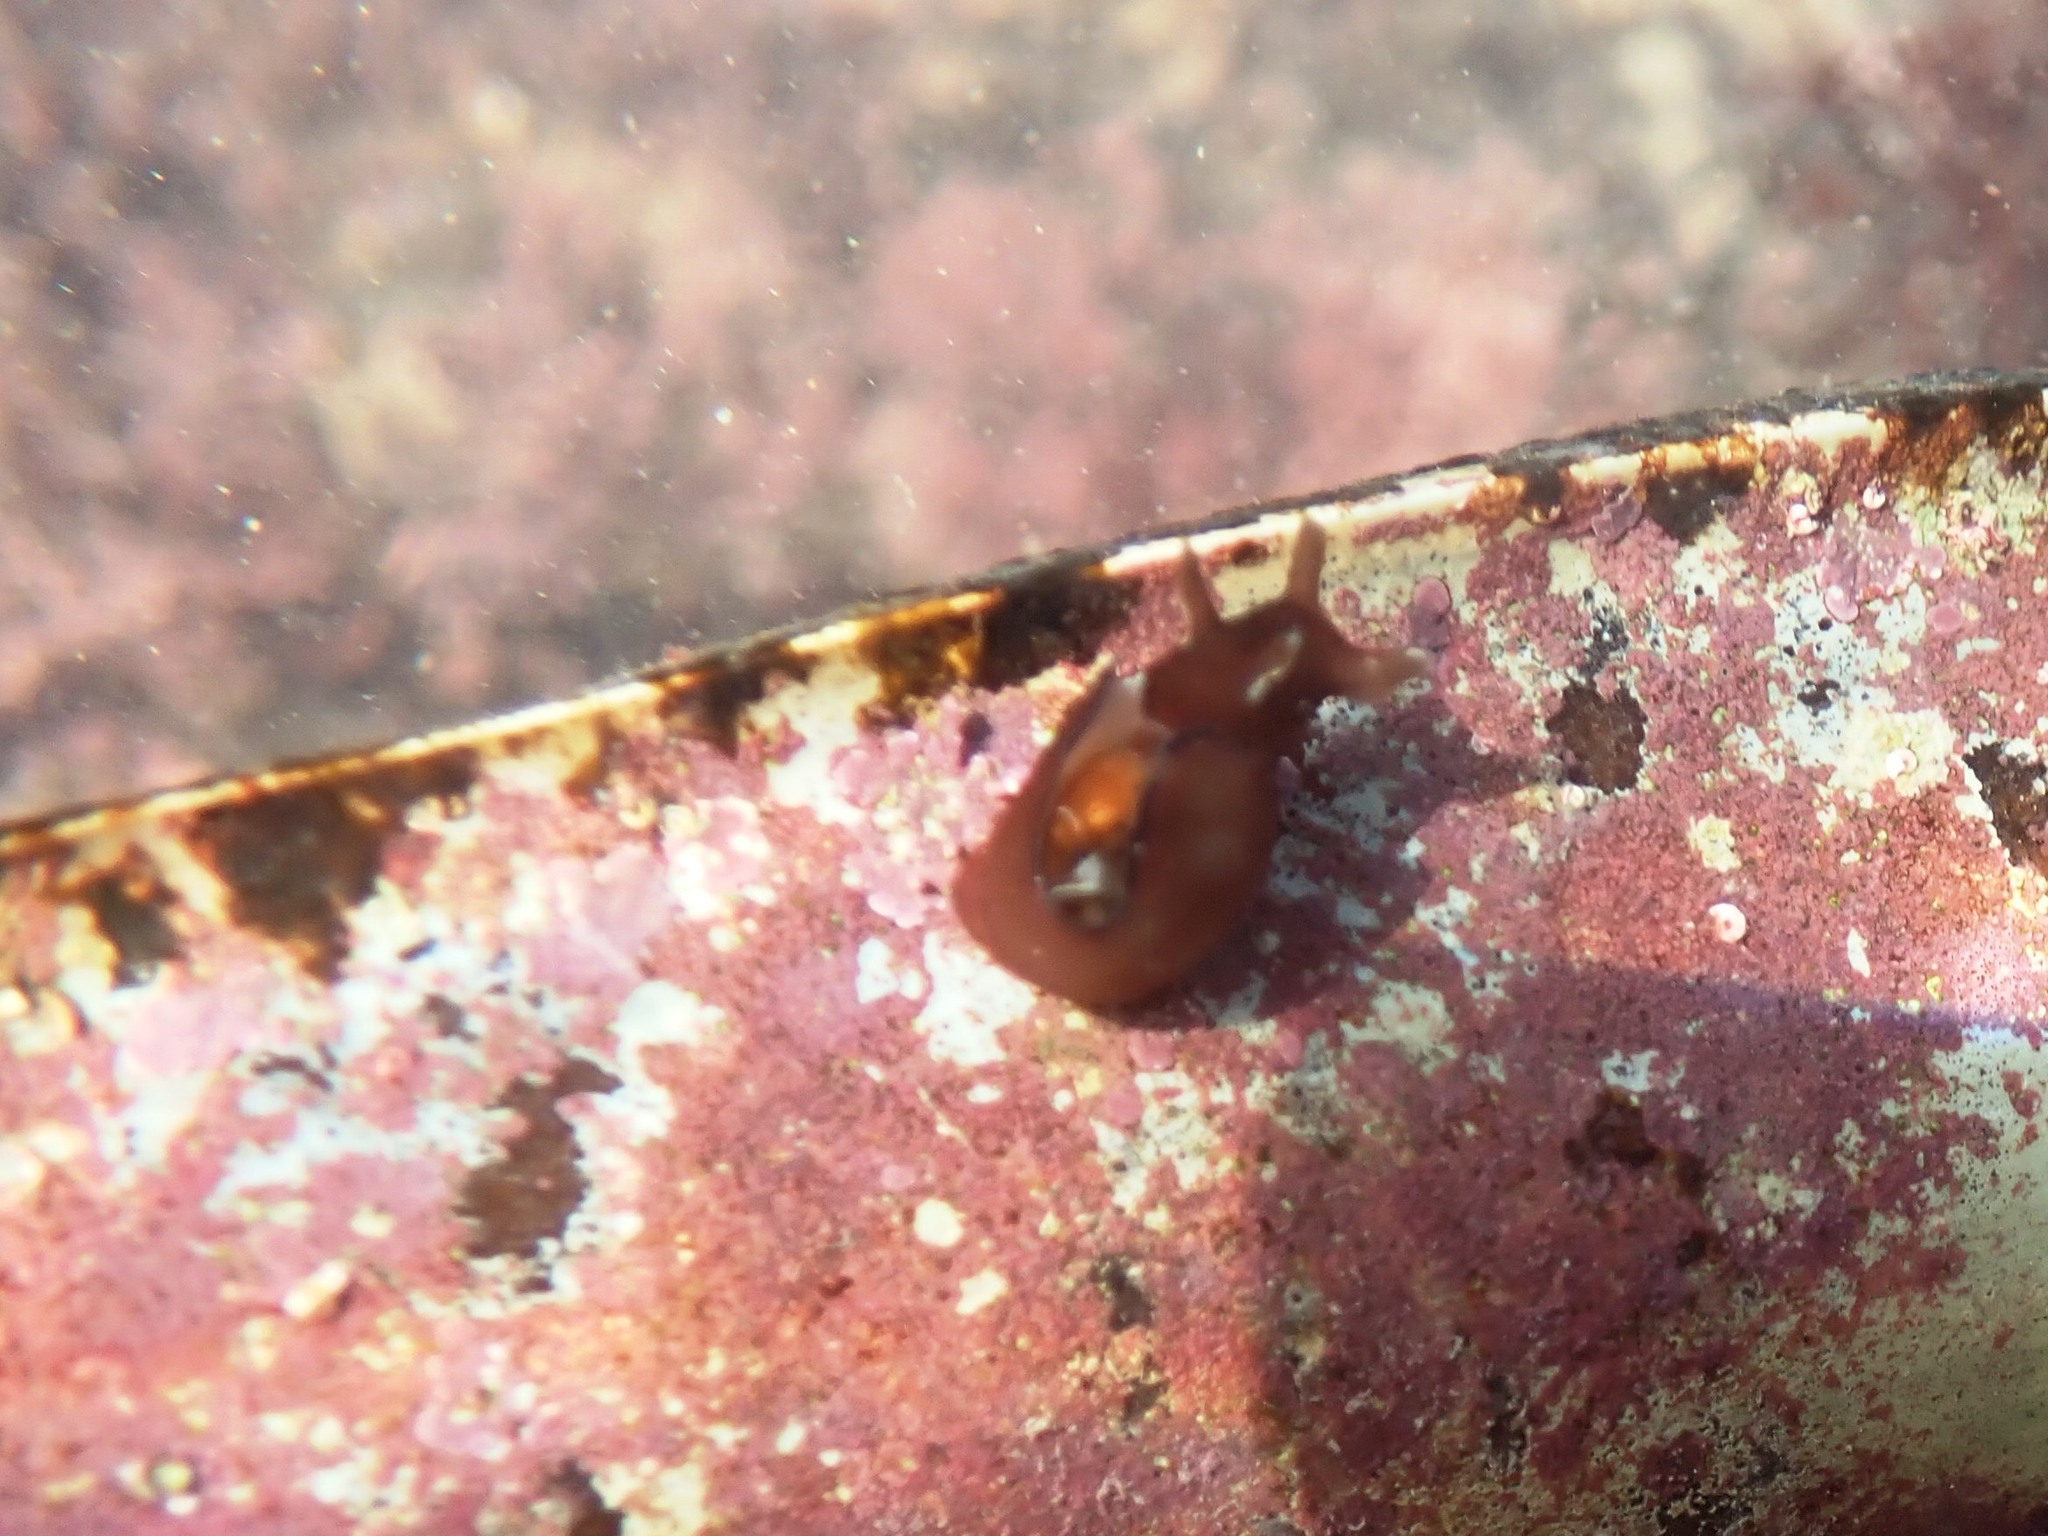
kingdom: Animalia
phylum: Mollusca
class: Gastropoda
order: Aplysiida
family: Aplysiidae
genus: Aplysia
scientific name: Aplysia punctata
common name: Common sea hare
